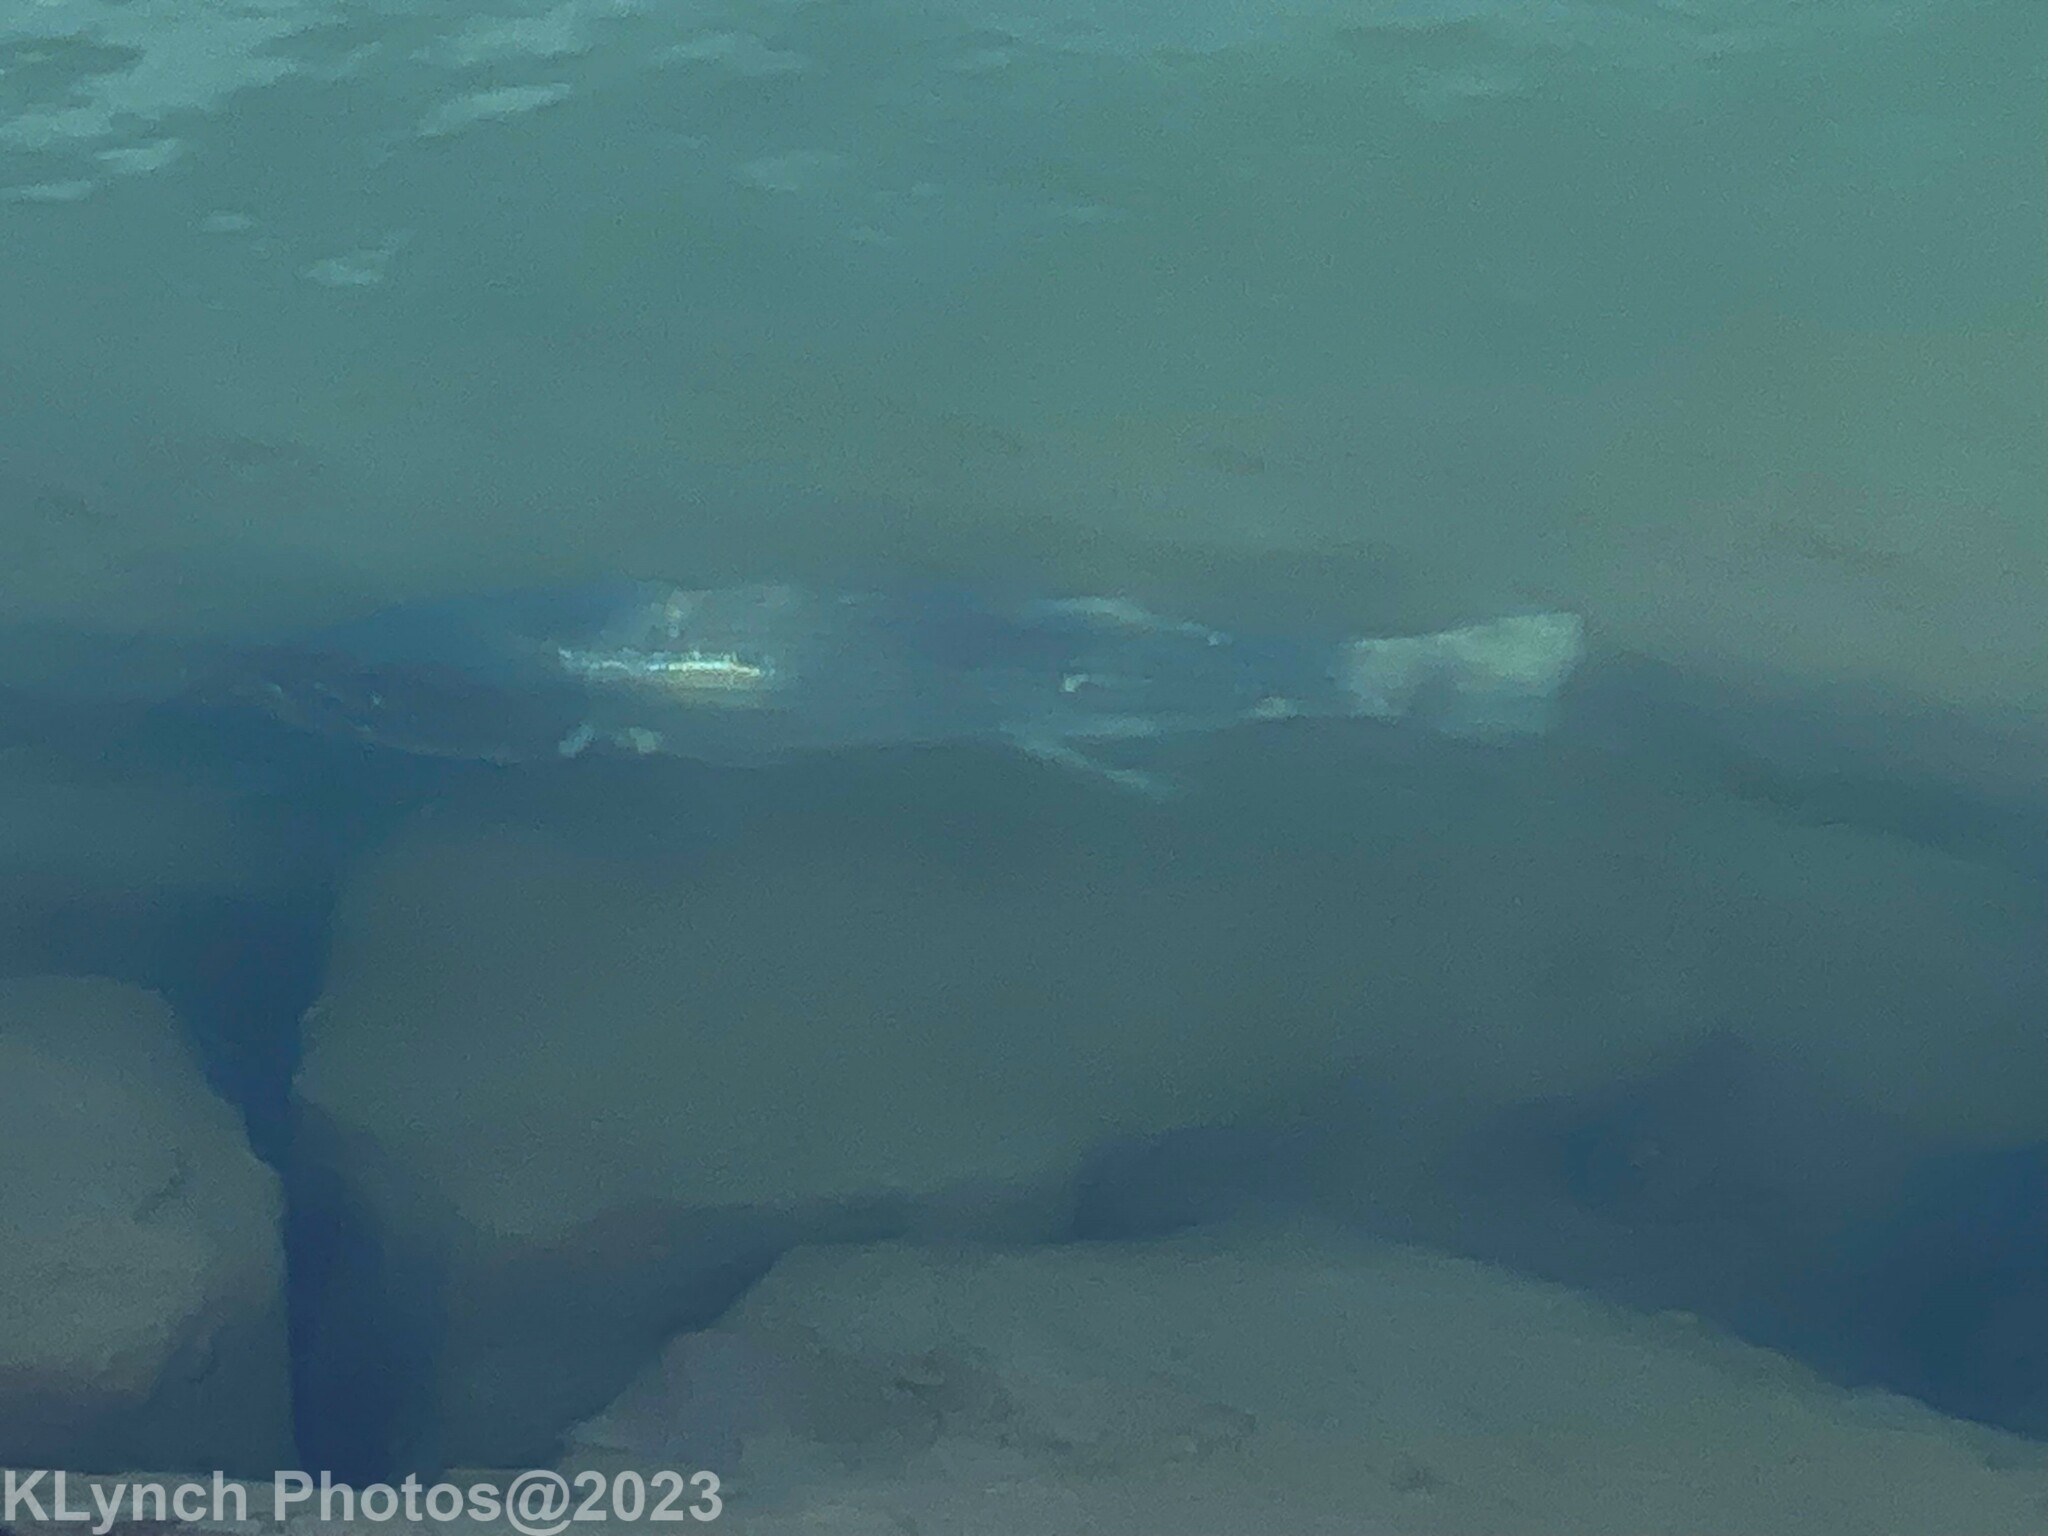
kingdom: Animalia
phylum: Chordata
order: Perciformes
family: Moronidae
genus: Morone
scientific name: Morone saxatilis
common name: Striped bass
